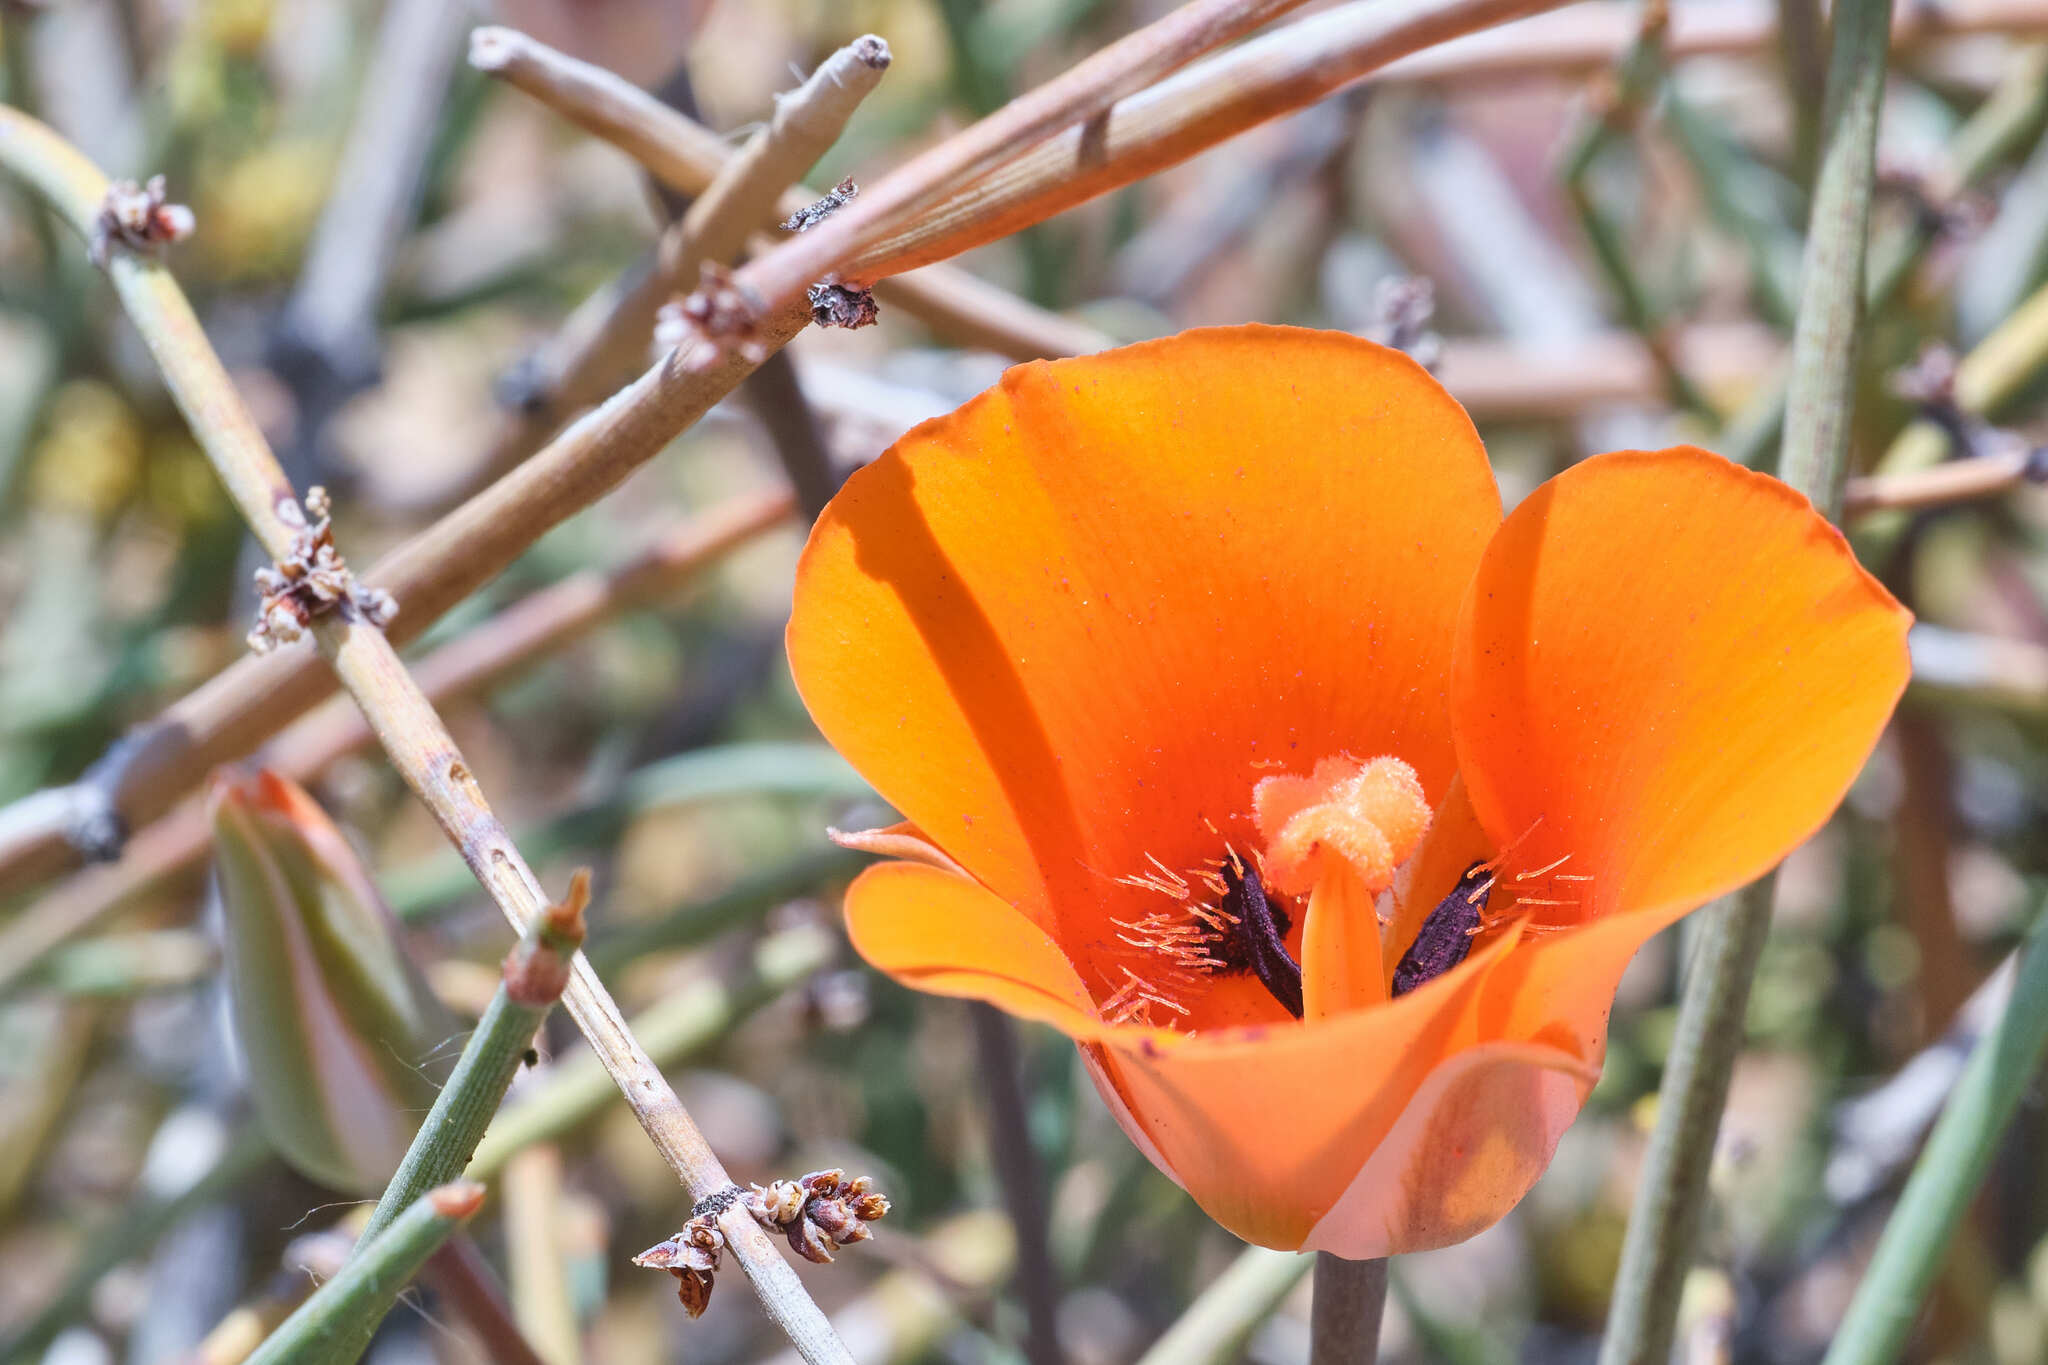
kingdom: Plantae
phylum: Tracheophyta
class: Liliopsida
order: Liliales
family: Liliaceae
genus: Calochortus
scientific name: Calochortus kennedyi
